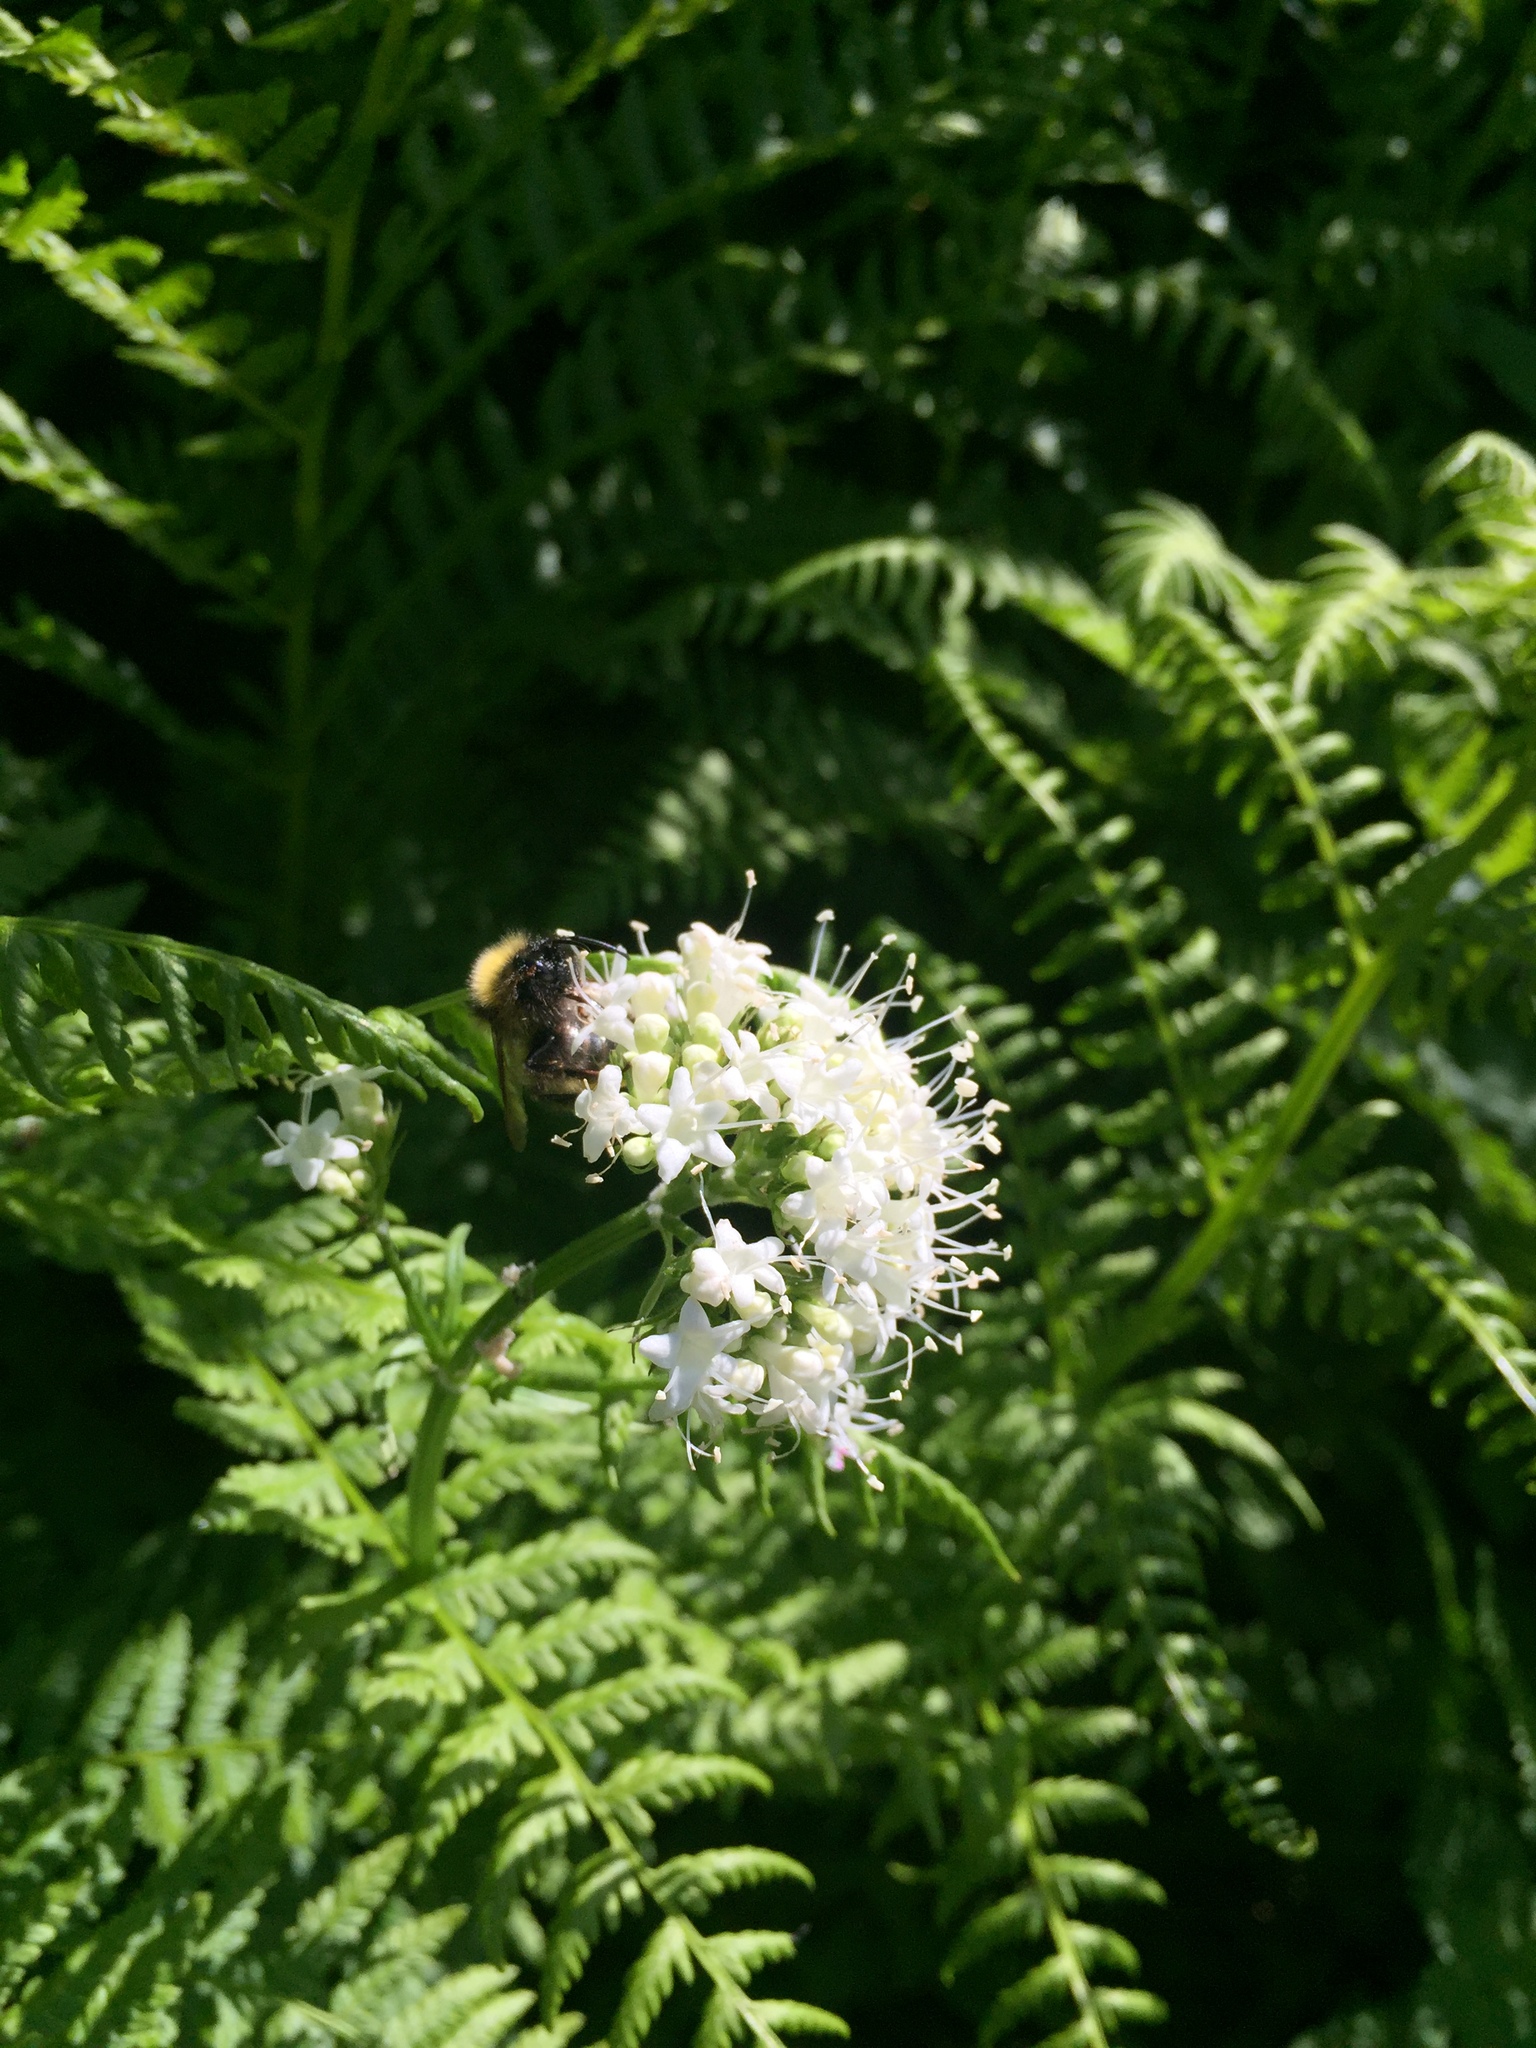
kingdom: Plantae
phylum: Tracheophyta
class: Magnoliopsida
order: Dipsacales
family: Caprifoliaceae
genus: Valeriana
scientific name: Valeriana sitchensis
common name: Pacific valerian
